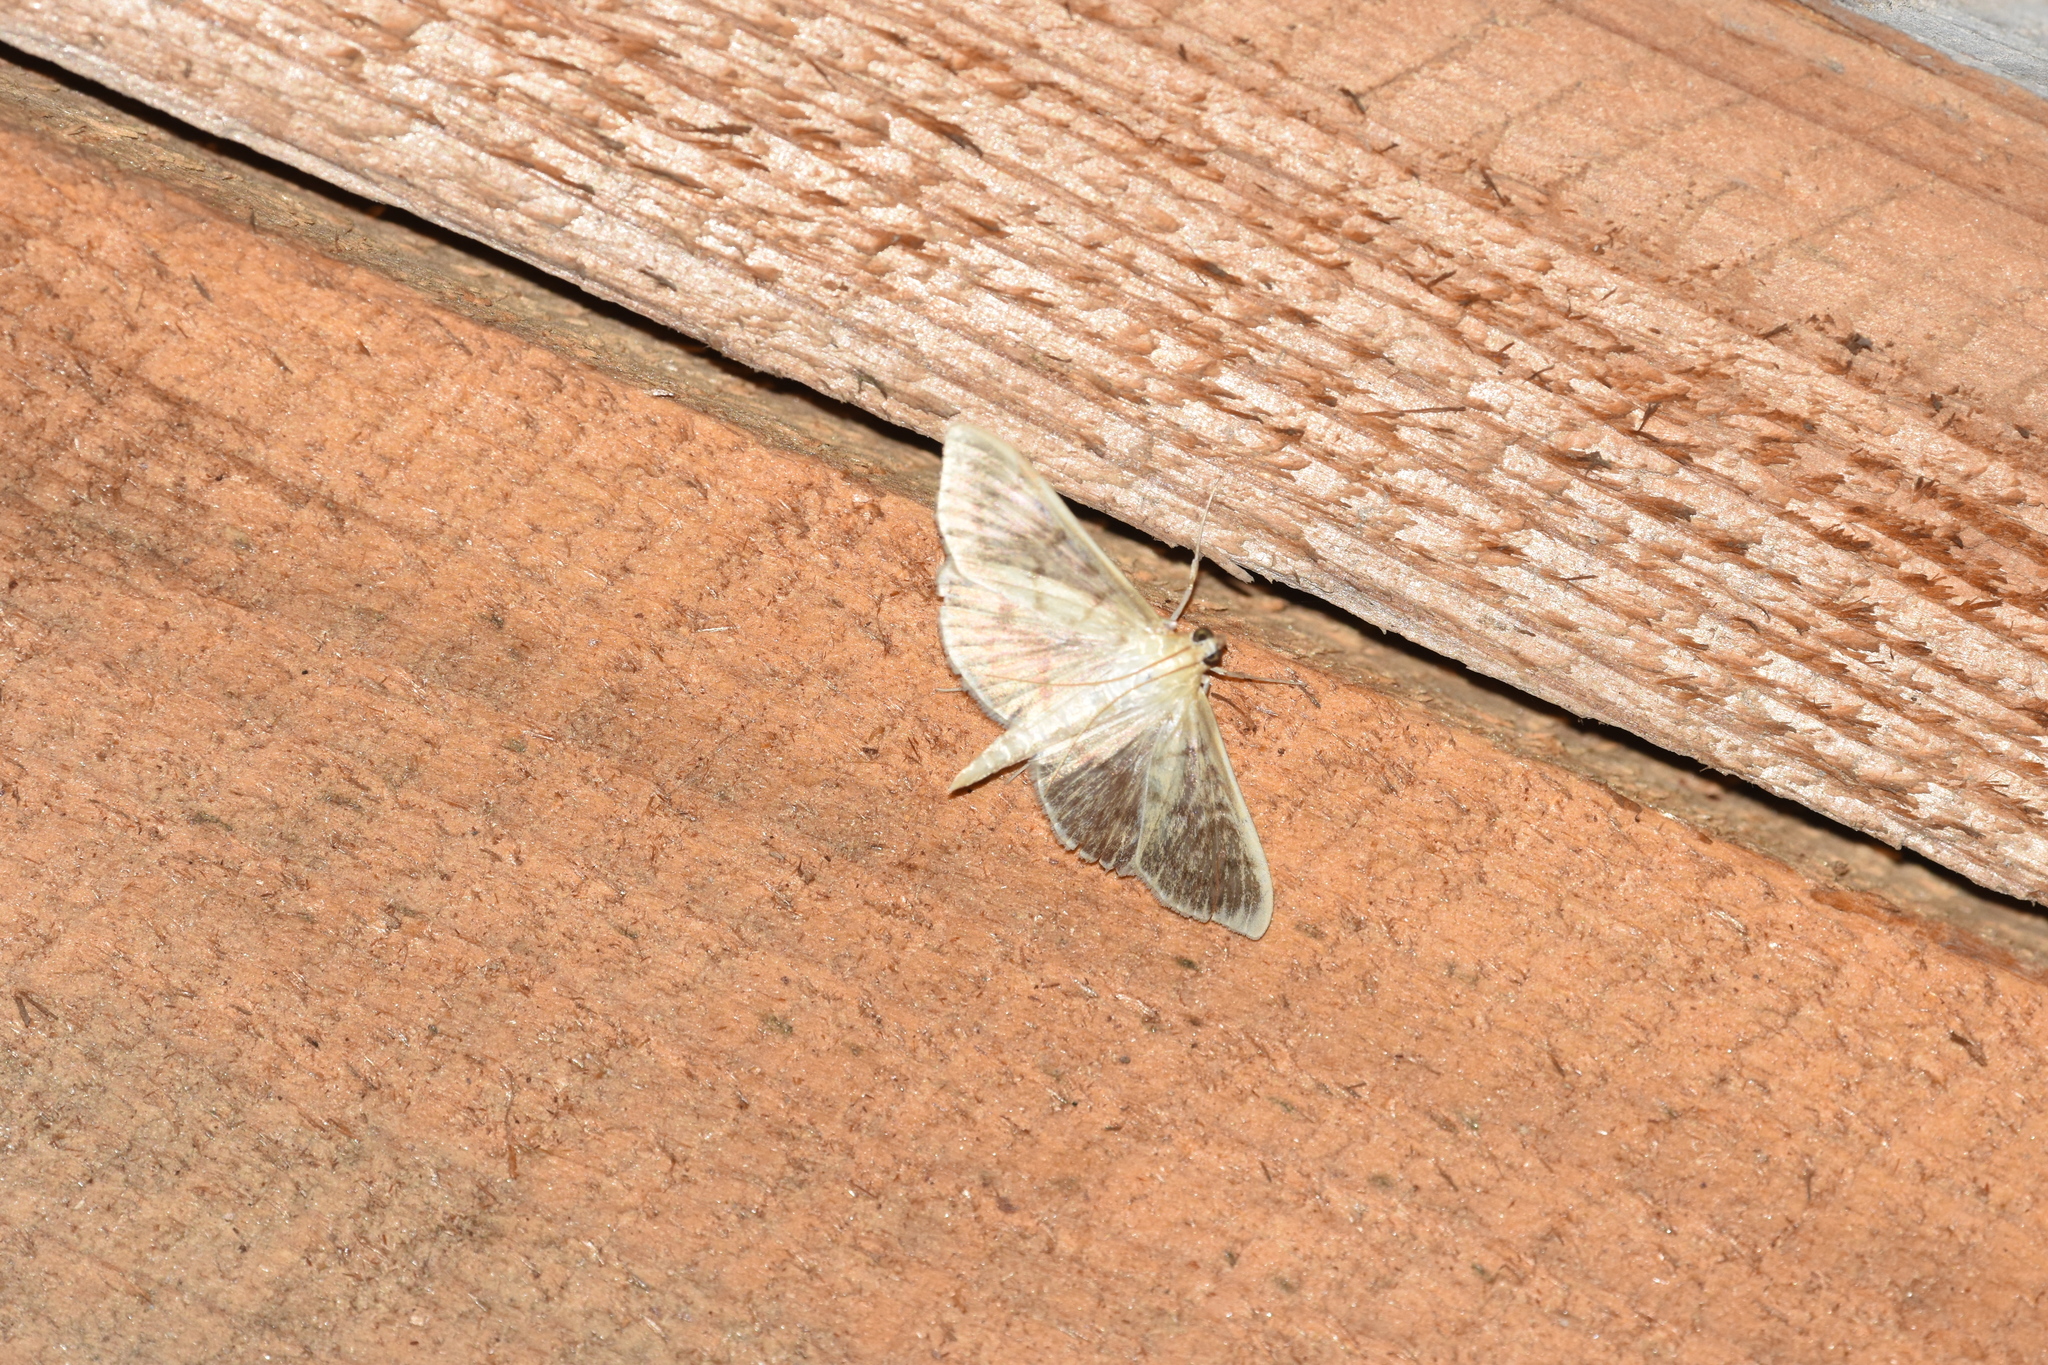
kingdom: Animalia
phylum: Arthropoda
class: Insecta
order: Lepidoptera
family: Crambidae
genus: Patania
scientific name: Patania ruralis
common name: Mother of pearl
